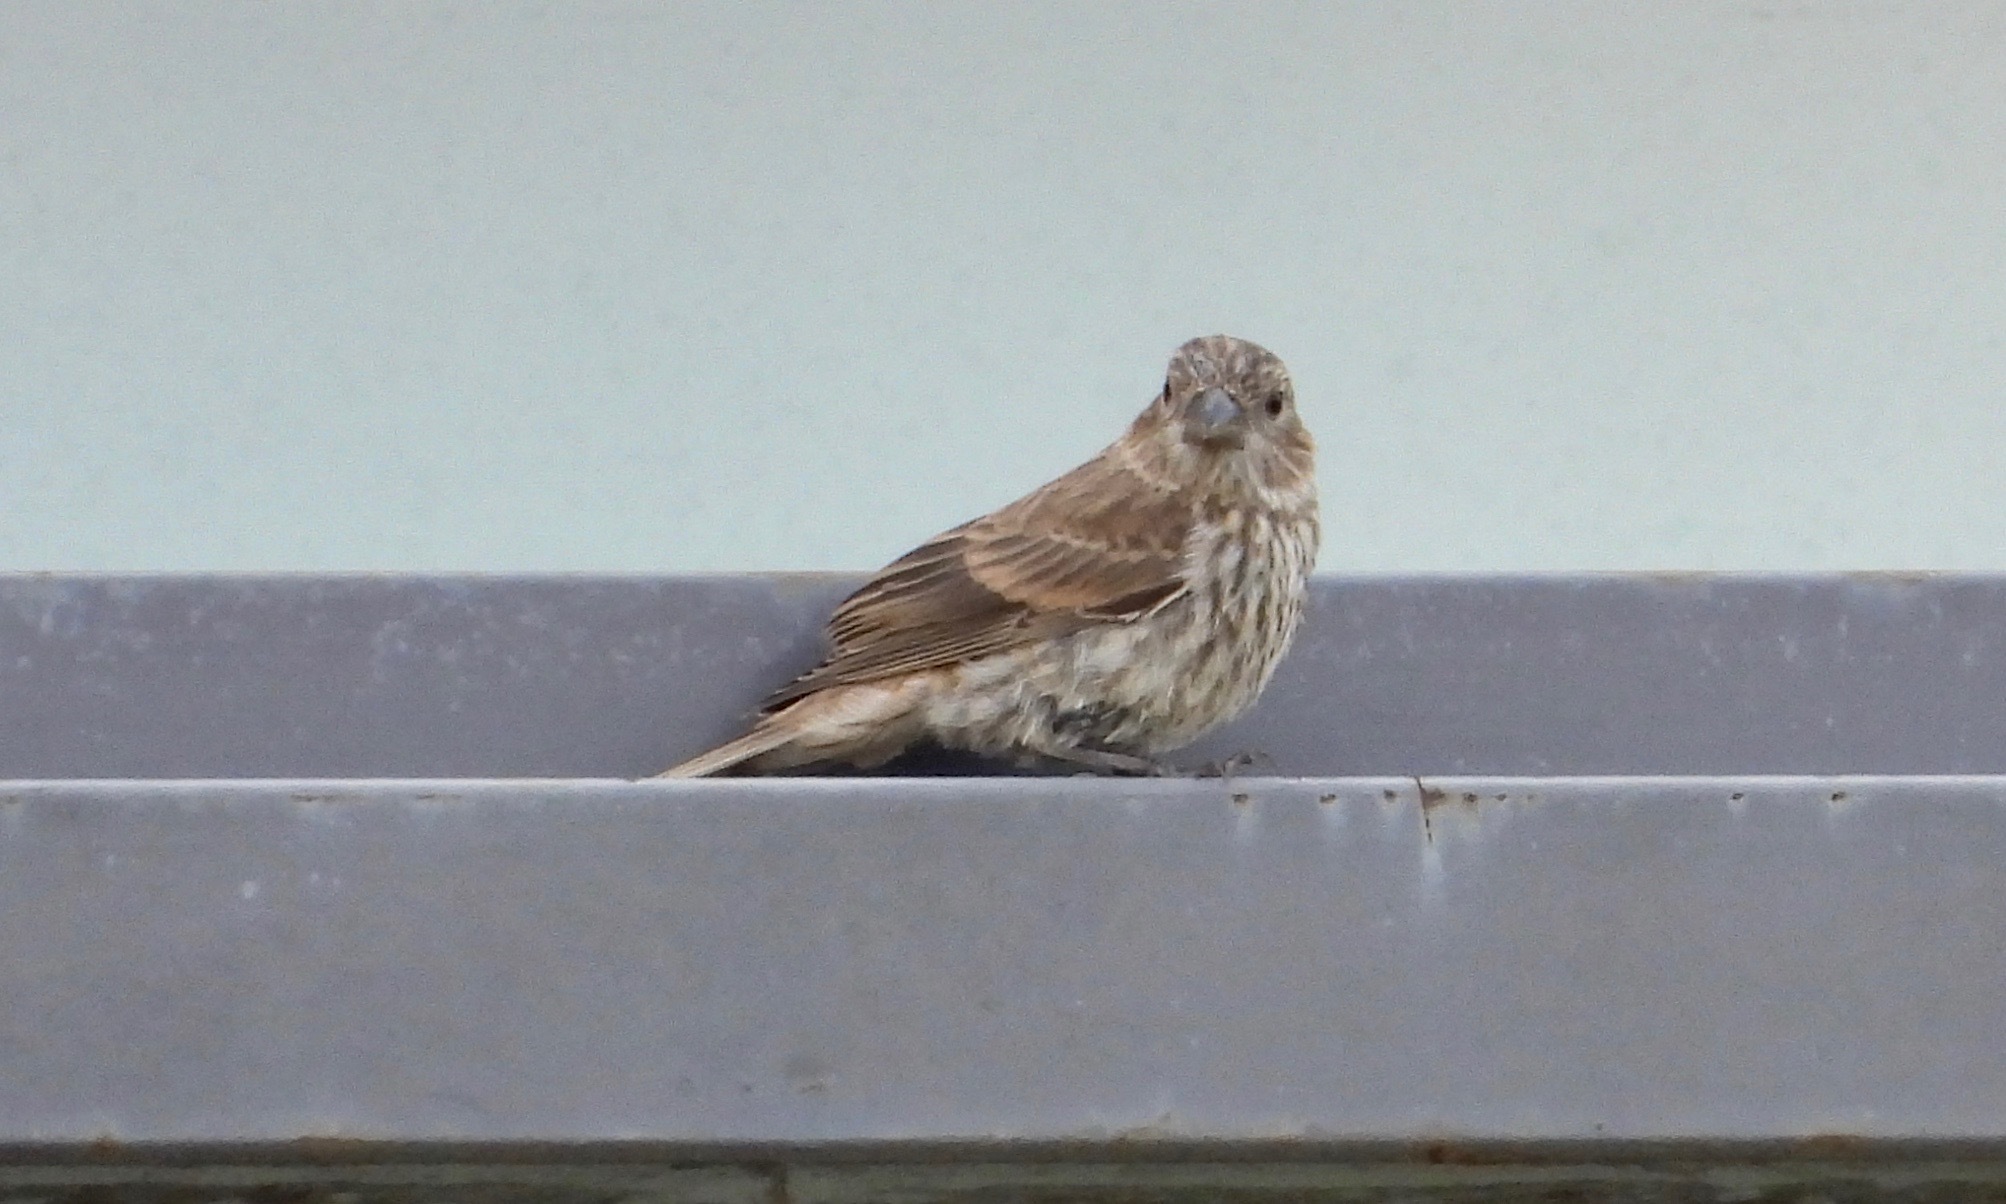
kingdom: Animalia
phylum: Chordata
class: Aves
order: Passeriformes
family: Fringillidae
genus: Haemorhous
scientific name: Haemorhous mexicanus
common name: House finch
